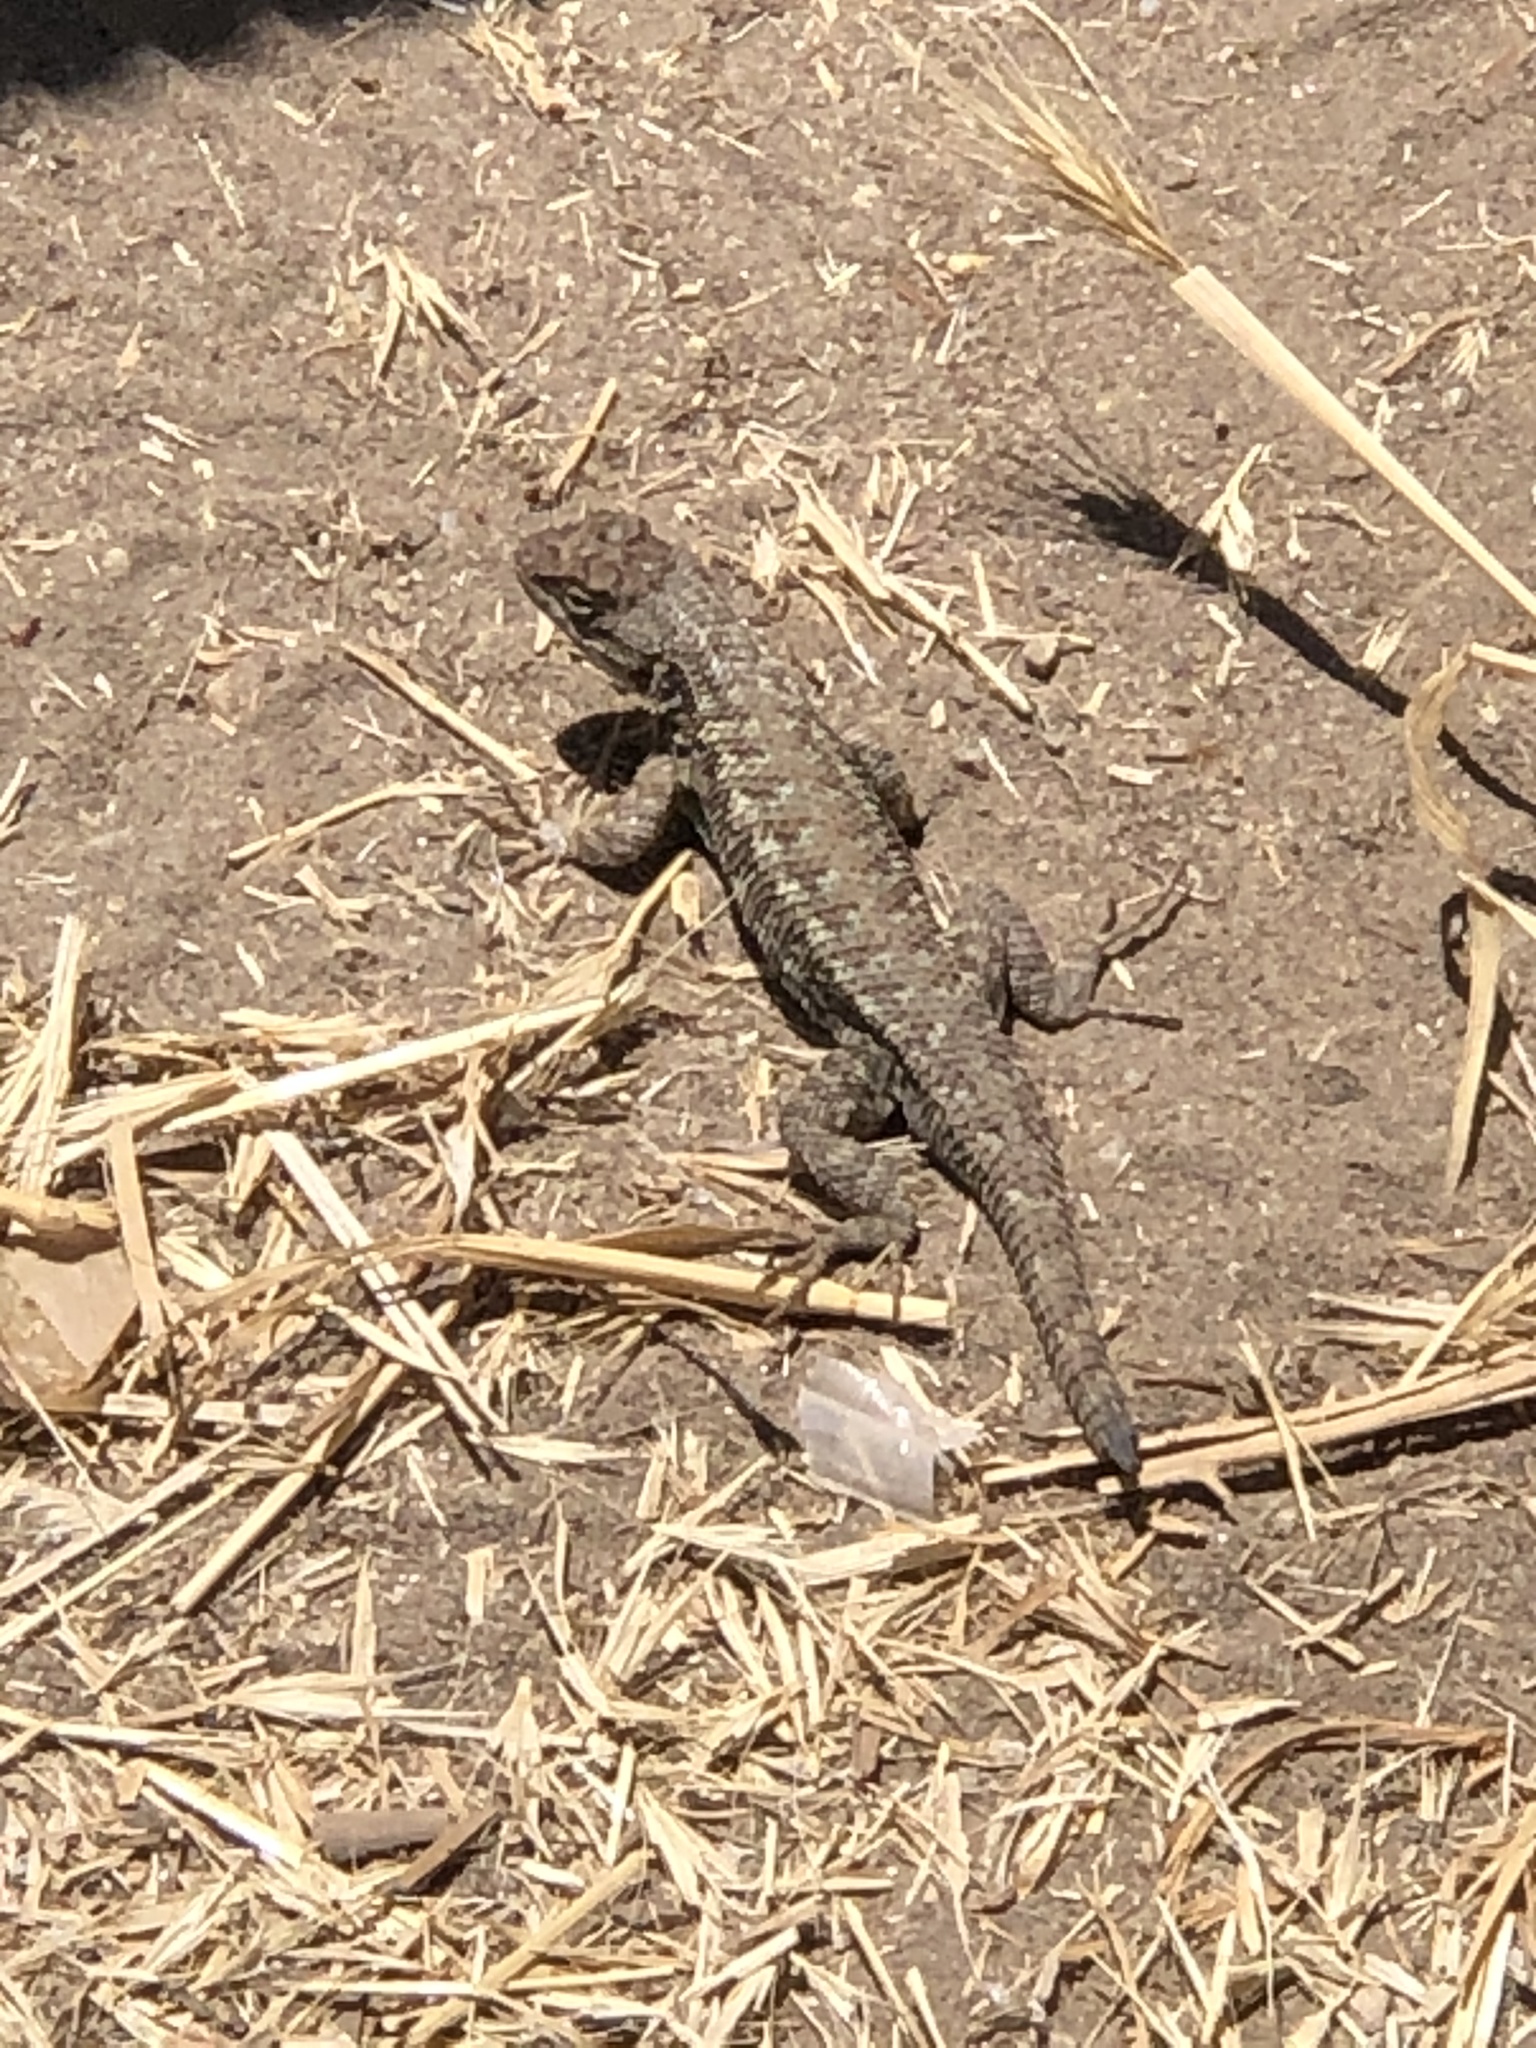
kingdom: Animalia
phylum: Chordata
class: Squamata
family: Phrynosomatidae
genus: Sceloporus
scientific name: Sceloporus occidentalis
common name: Western fence lizard
